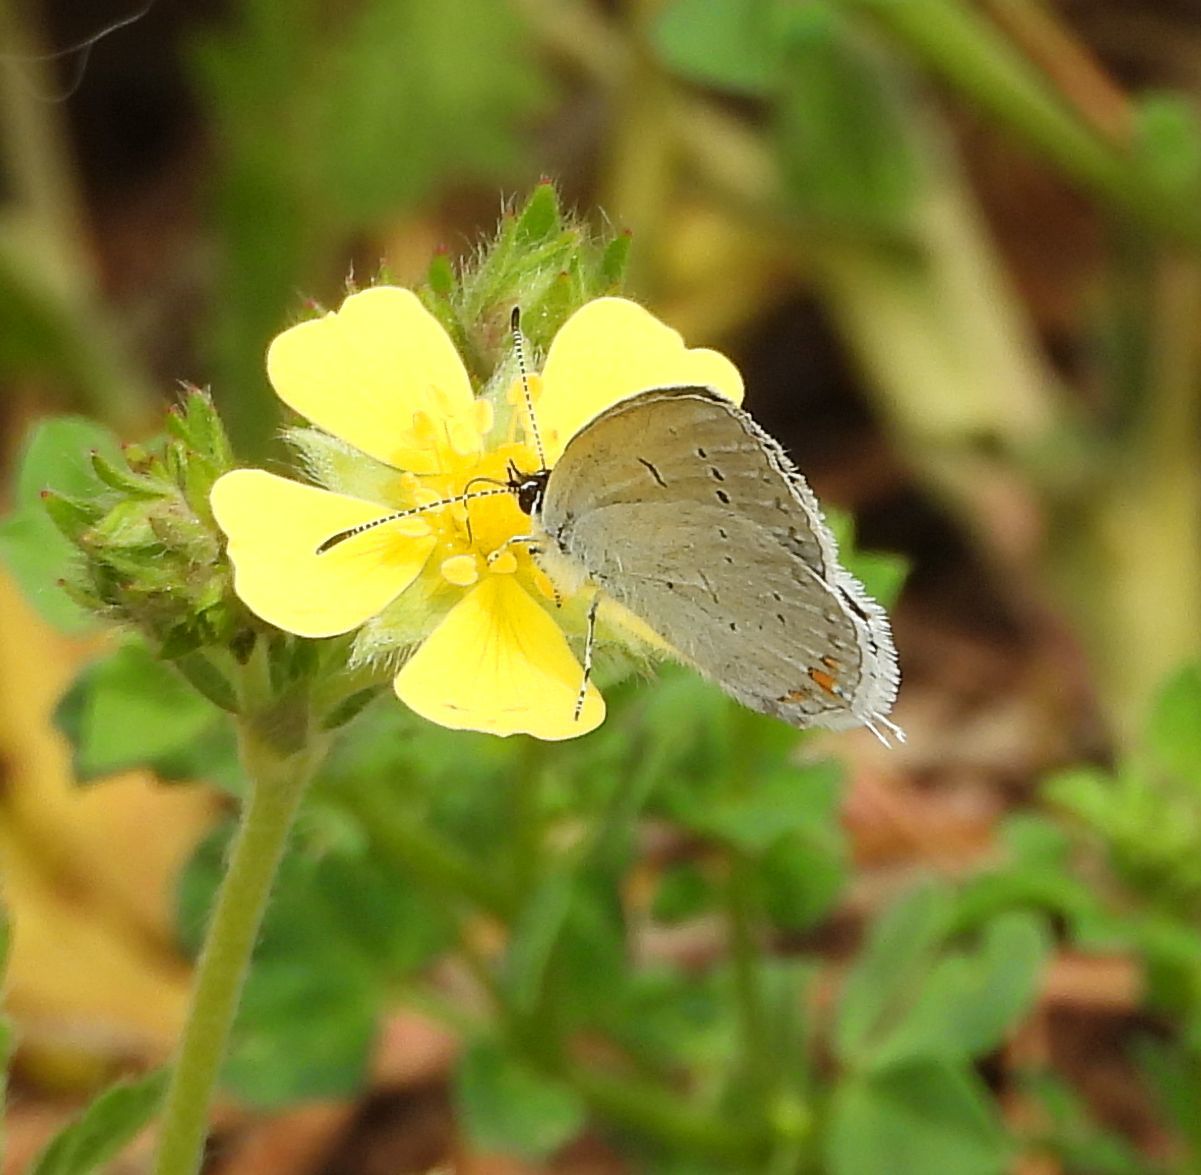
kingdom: Animalia
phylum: Arthropoda
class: Insecta
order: Lepidoptera
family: Lycaenidae
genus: Elkalyce
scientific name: Elkalyce comyntas
